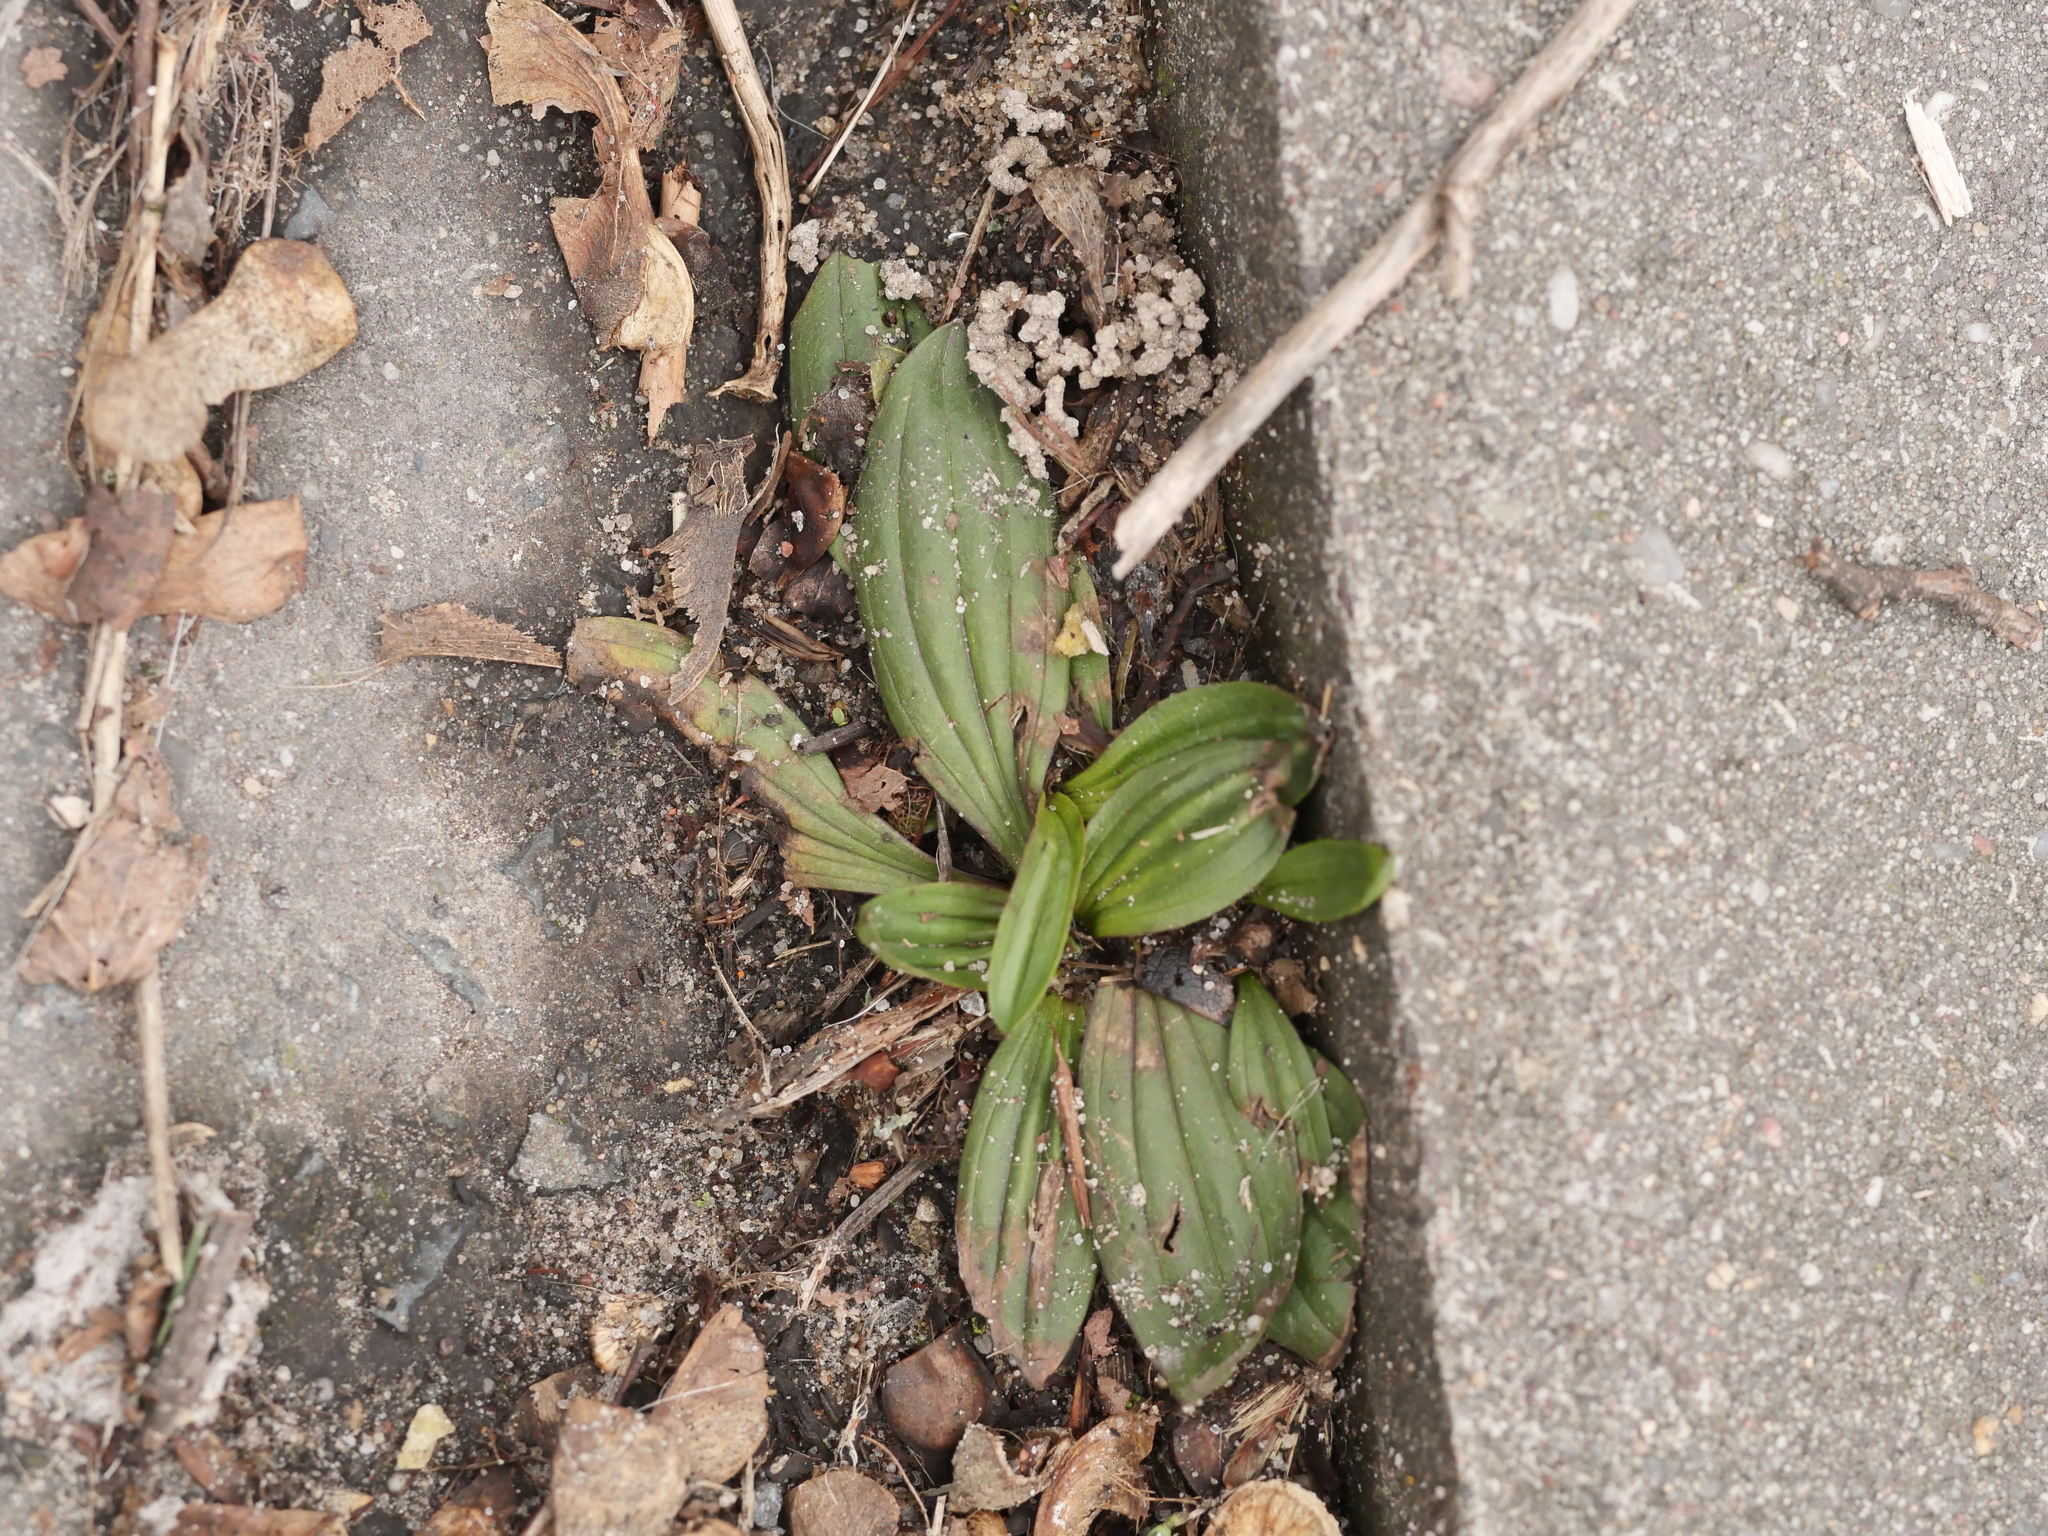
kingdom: Plantae
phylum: Tracheophyta
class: Magnoliopsida
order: Lamiales
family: Plantaginaceae
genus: Plantago
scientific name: Plantago lanceolata
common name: Ribwort plantain
